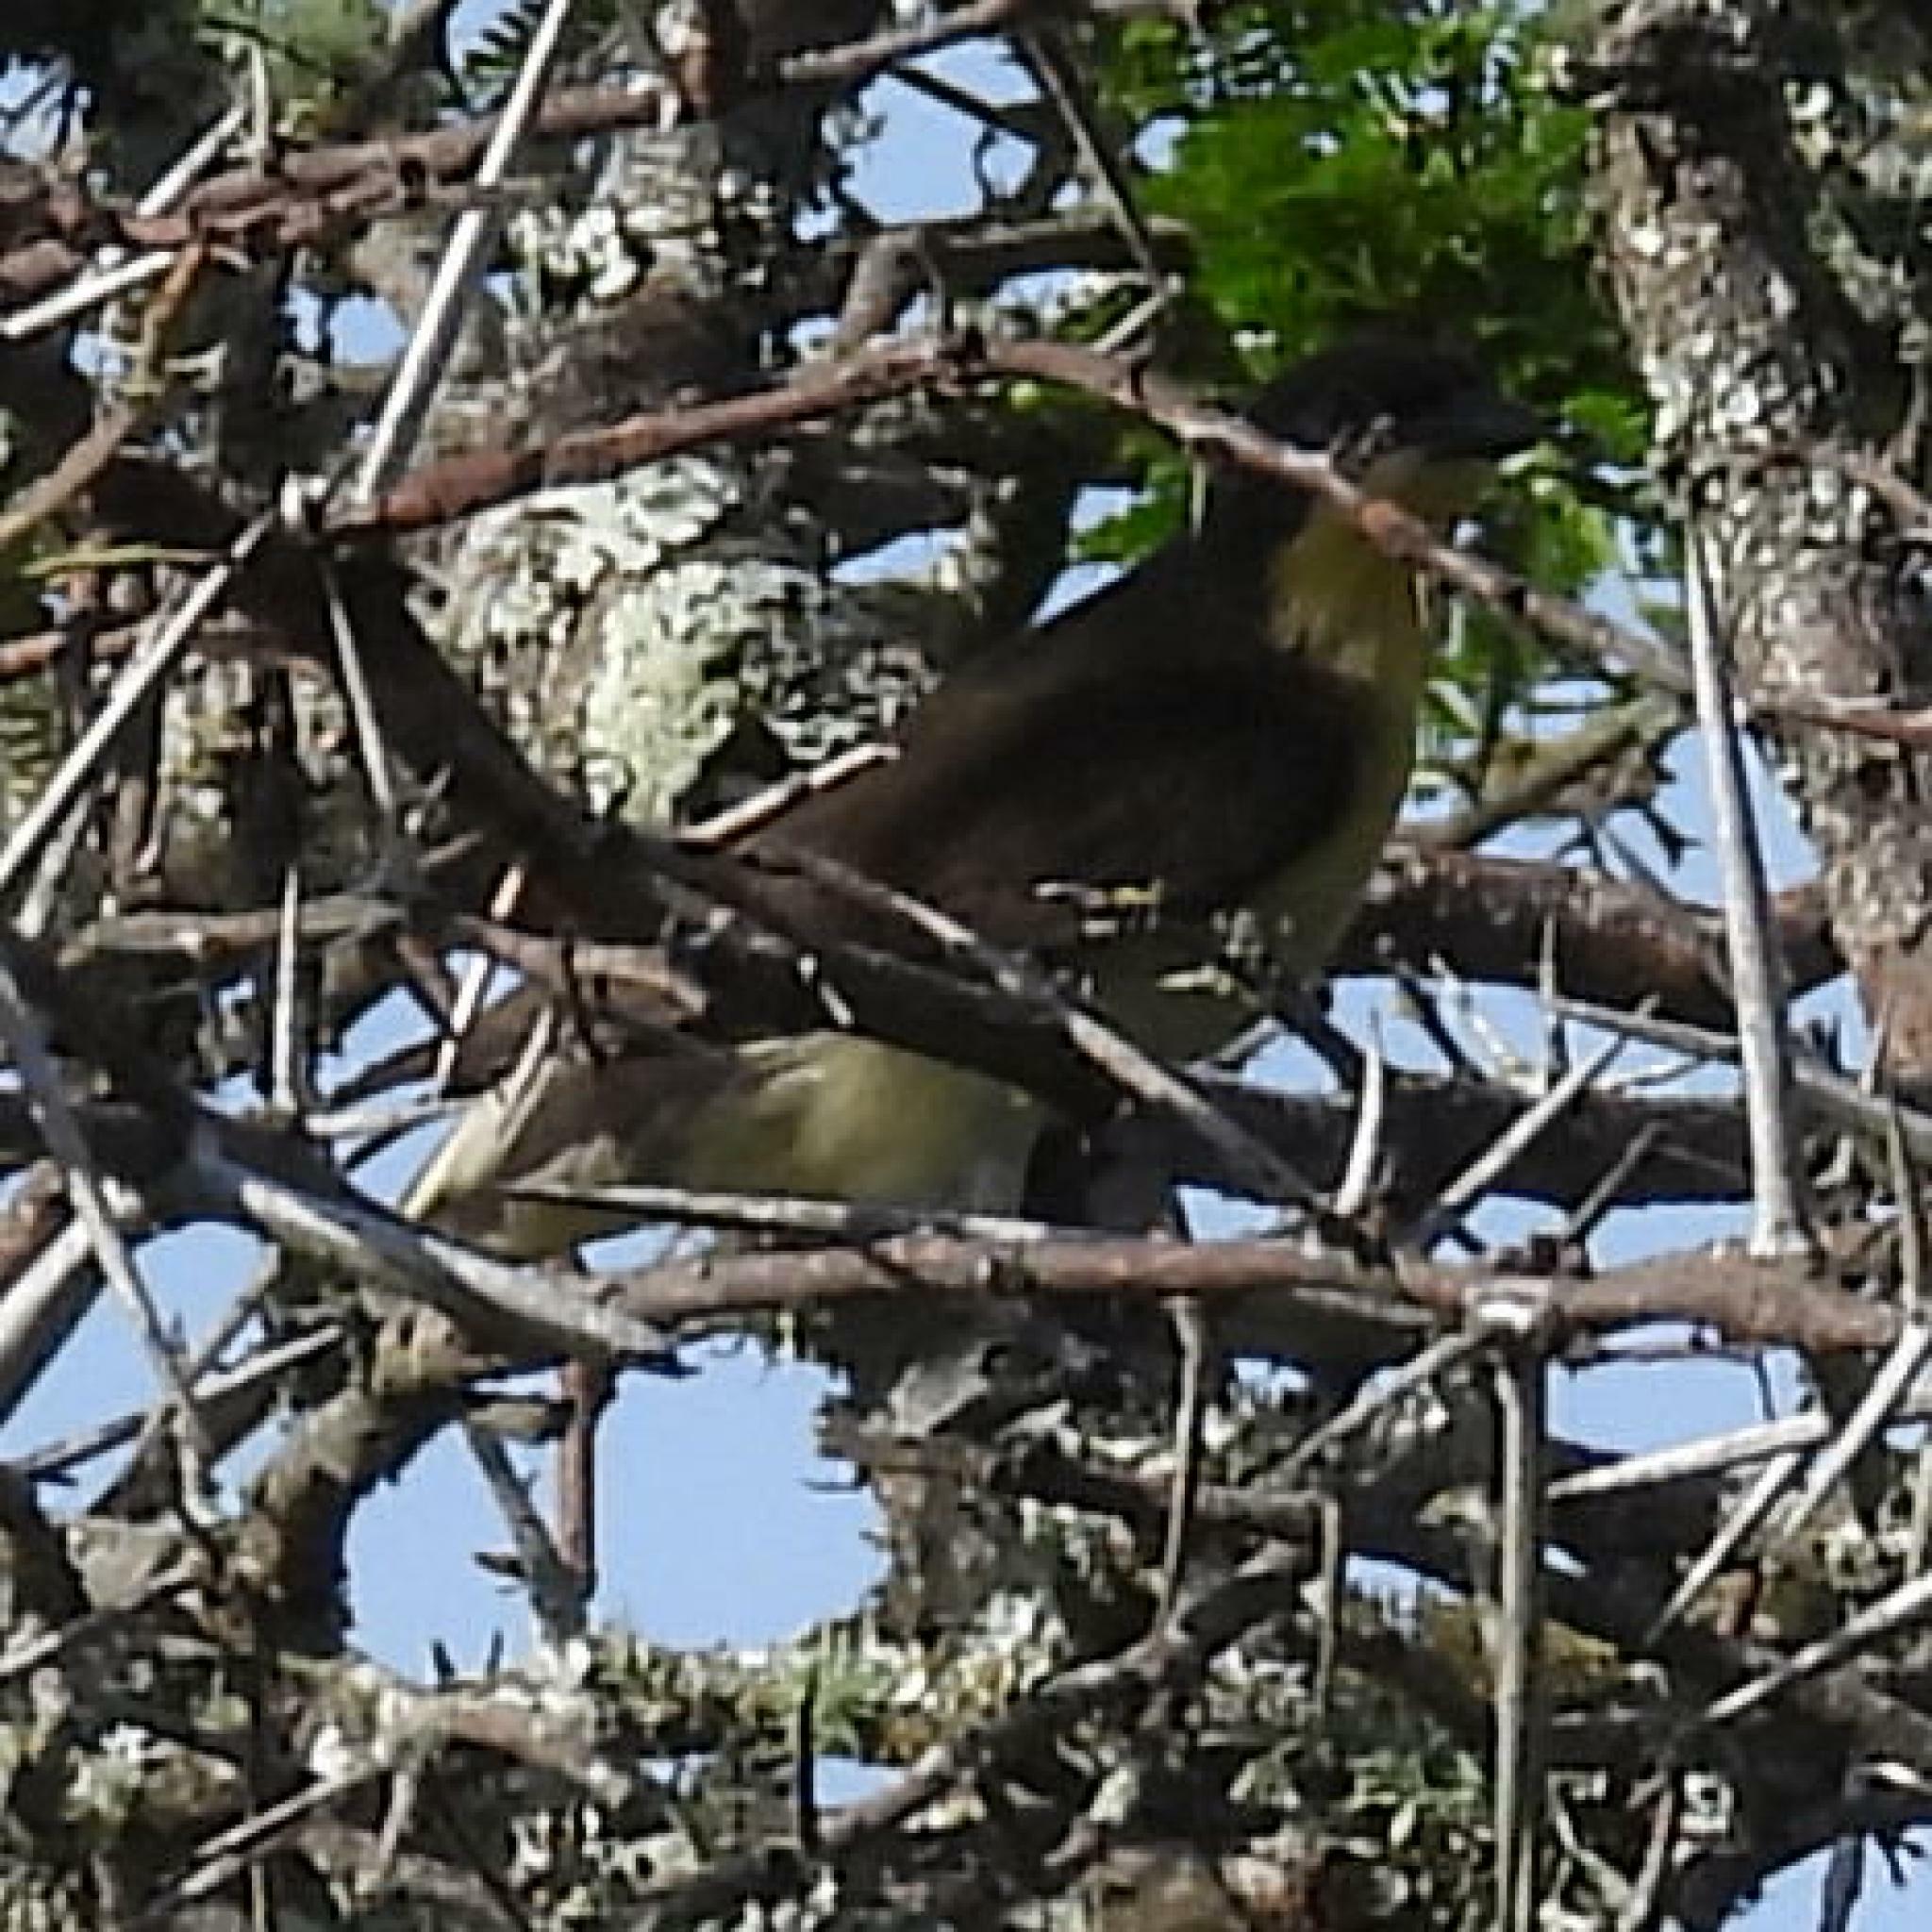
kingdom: Animalia
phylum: Chordata
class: Aves
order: Piciformes
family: Indicatoridae
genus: Indicator
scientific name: Indicator indicator
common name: Greater honeyguide
